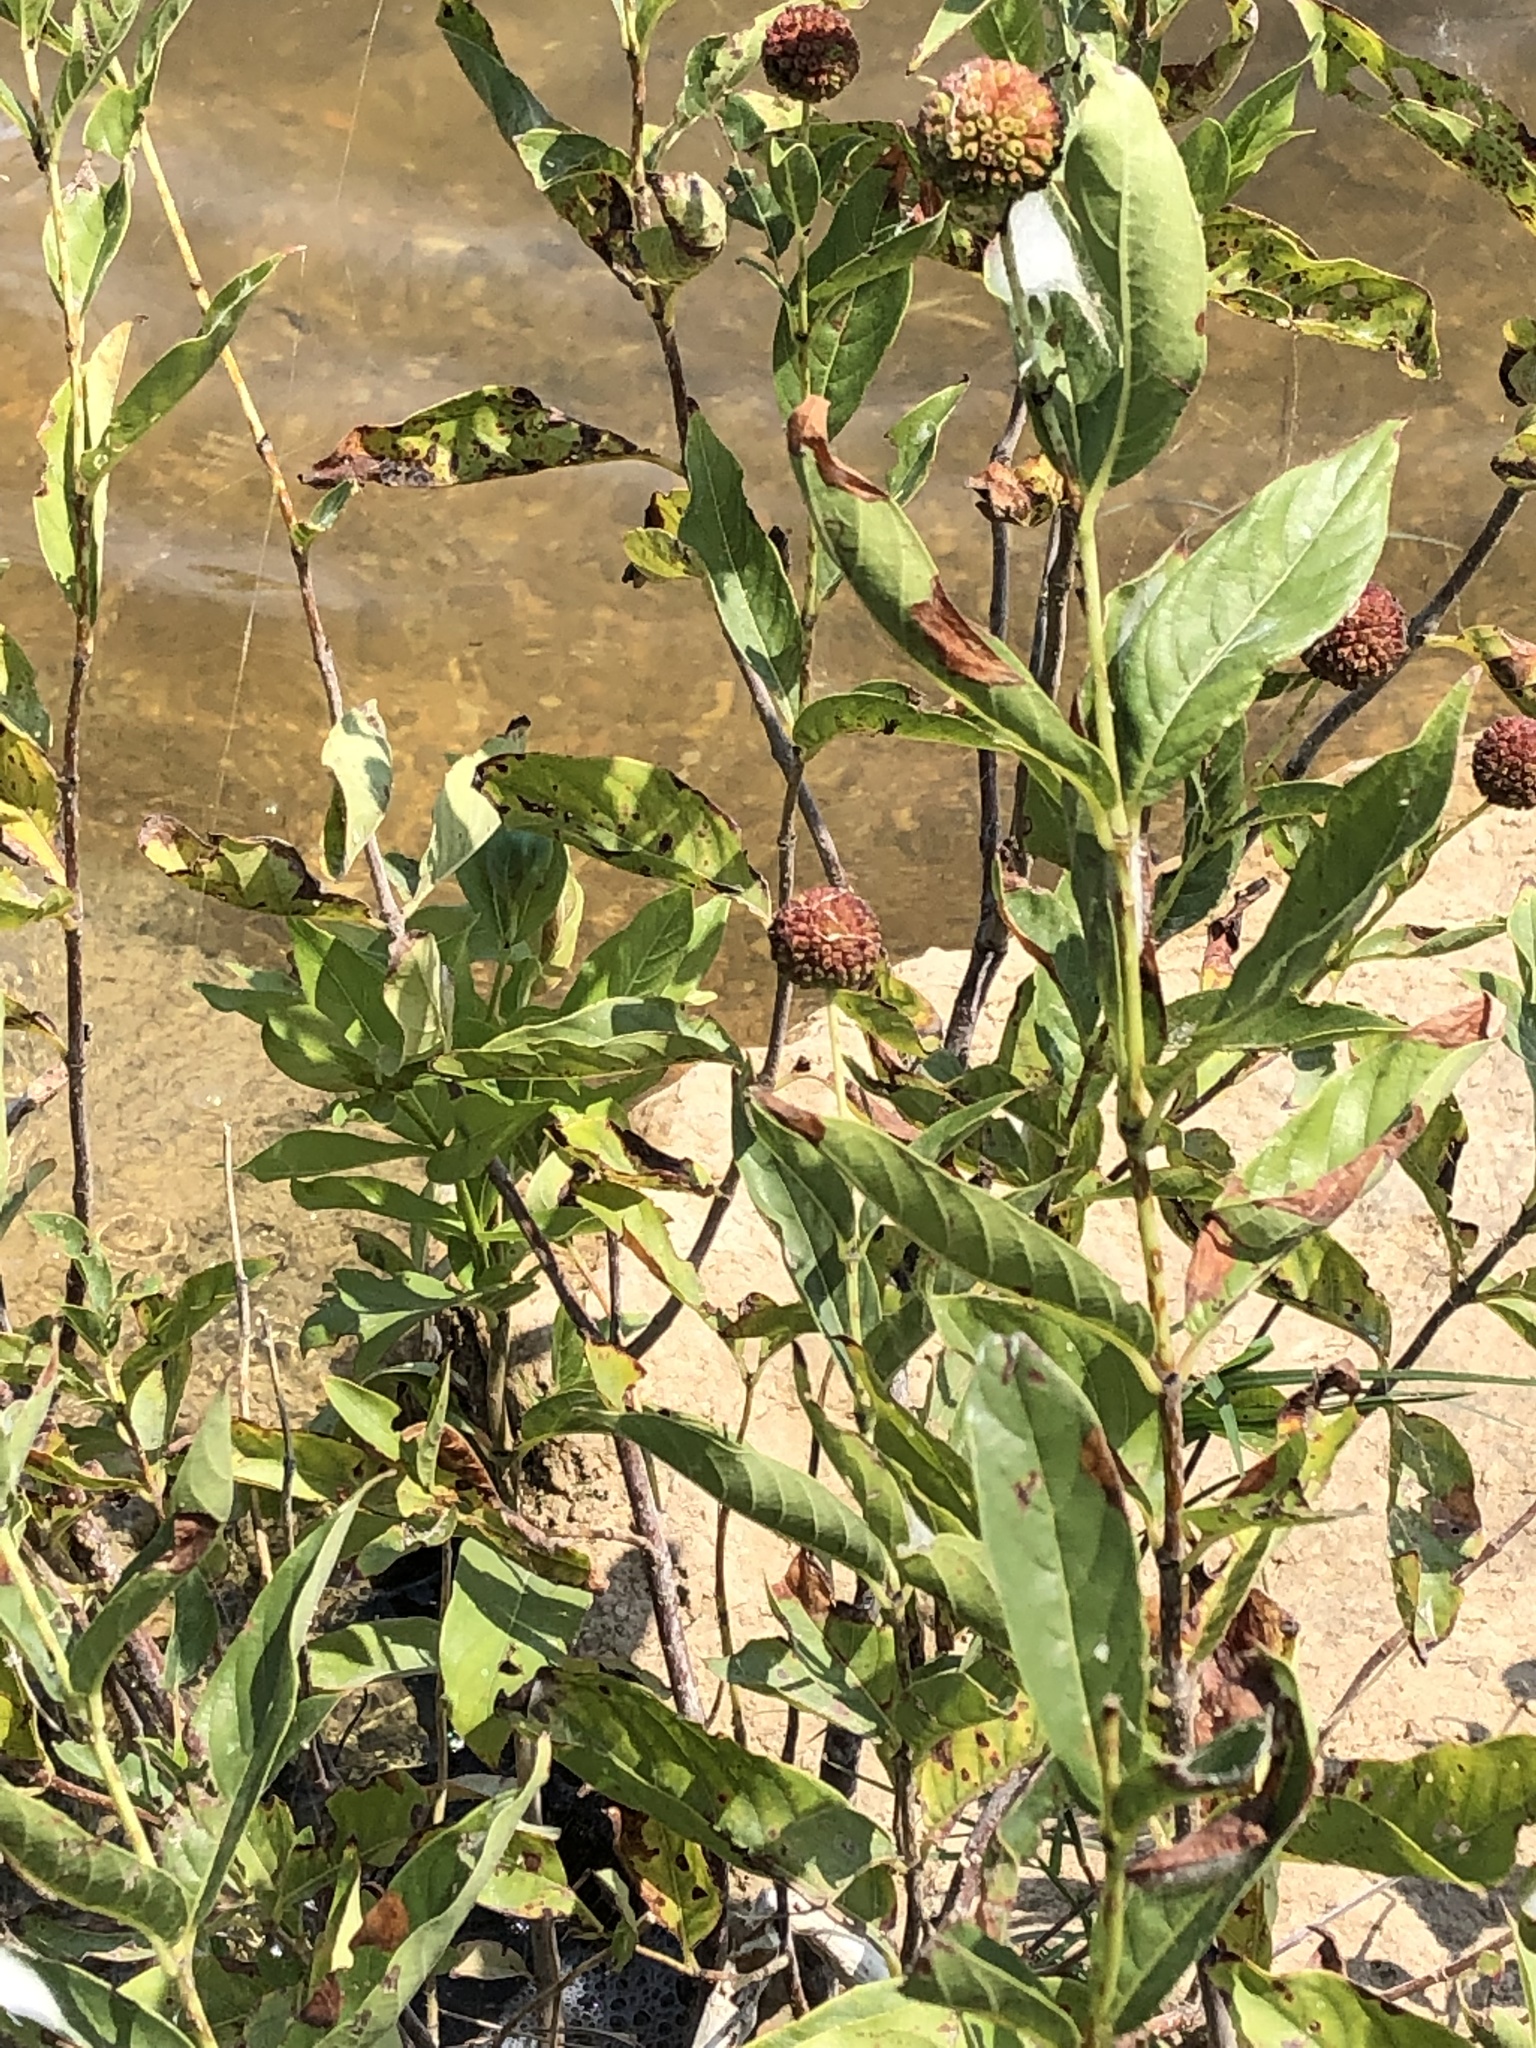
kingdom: Plantae
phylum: Tracheophyta
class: Magnoliopsida
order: Gentianales
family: Rubiaceae
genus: Cephalanthus
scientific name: Cephalanthus occidentalis
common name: Button-willow
